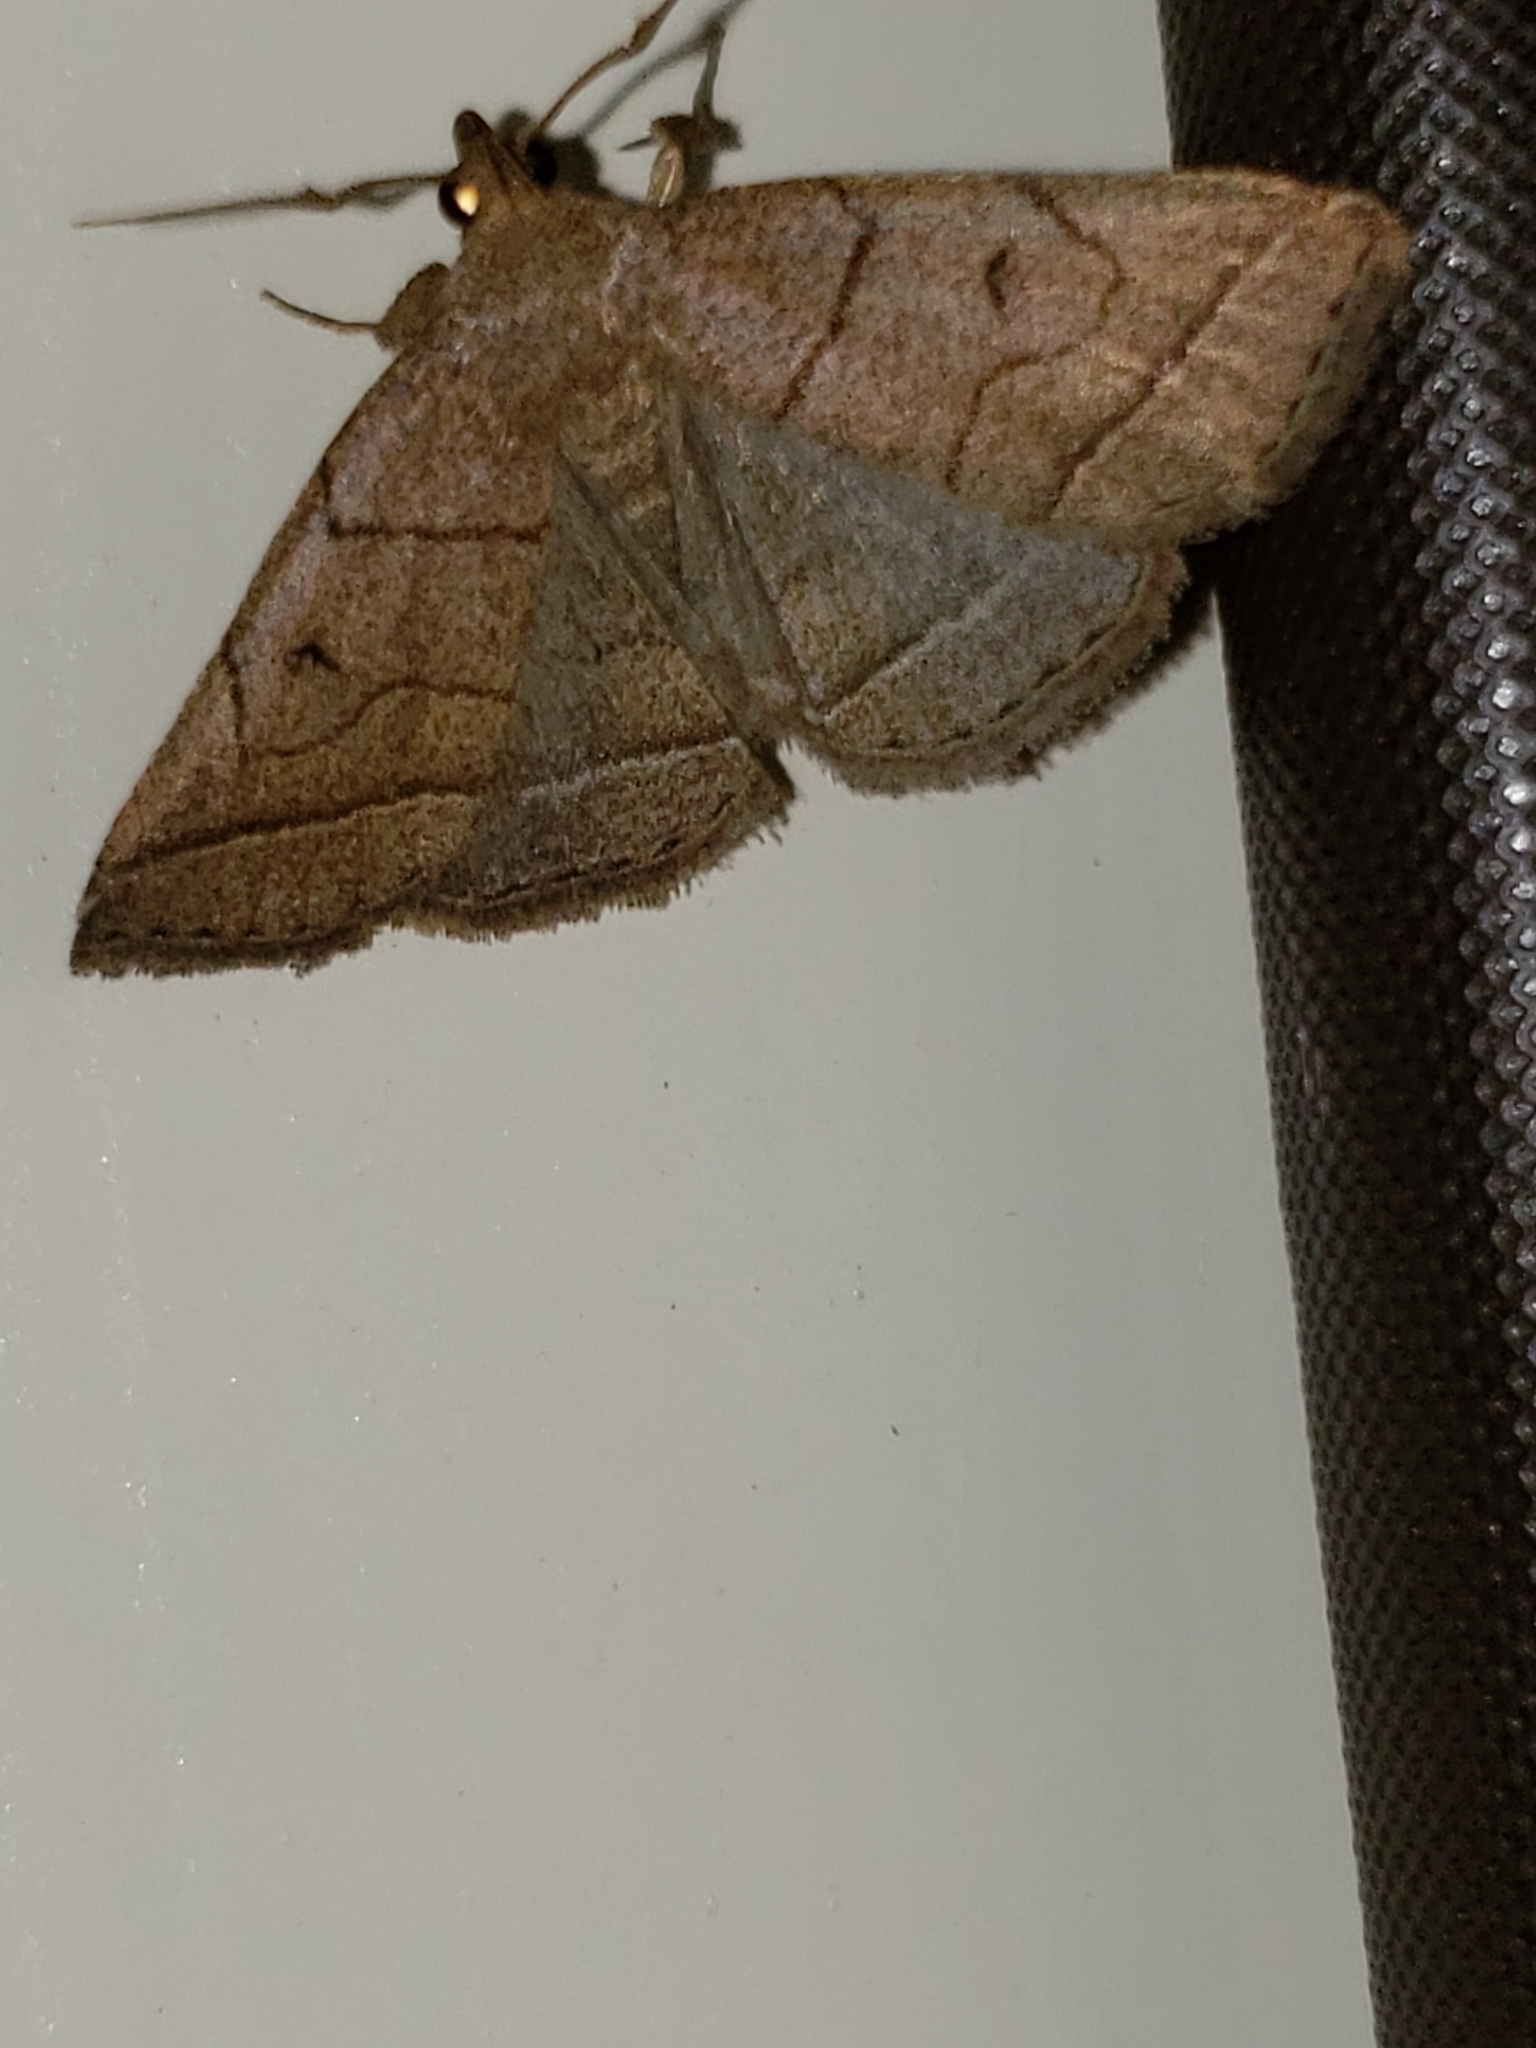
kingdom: Animalia
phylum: Arthropoda
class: Insecta
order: Lepidoptera
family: Erebidae
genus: Zanclognatha
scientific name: Zanclognatha cruralis
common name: Early fan-foot
